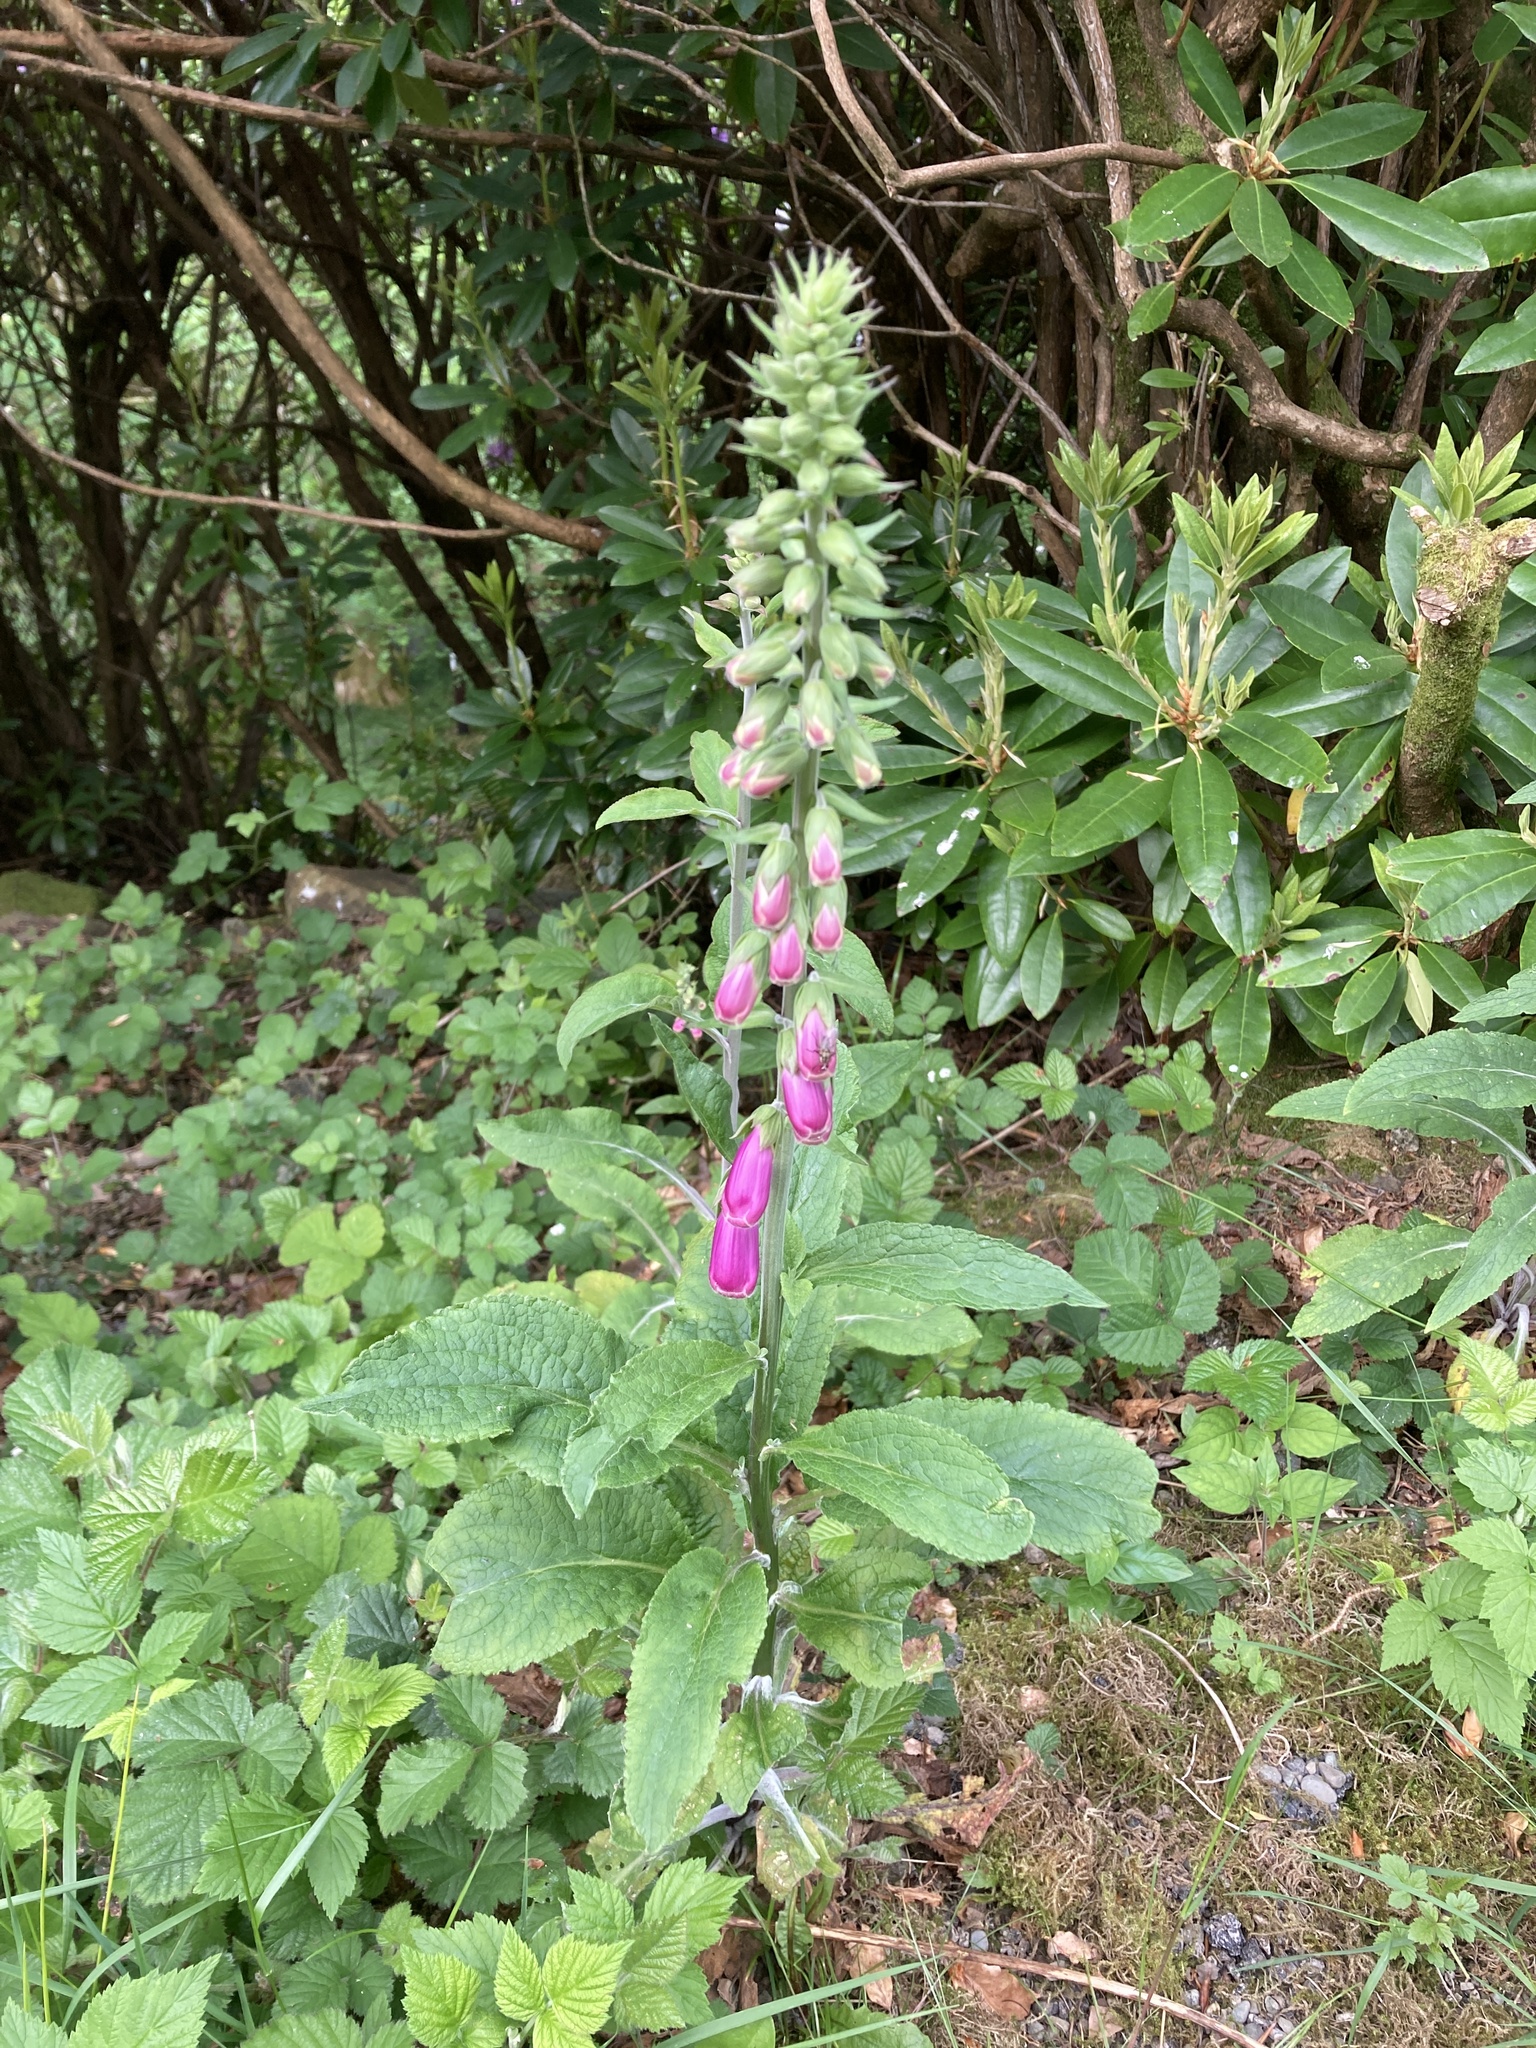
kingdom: Plantae
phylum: Tracheophyta
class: Magnoliopsida
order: Lamiales
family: Plantaginaceae
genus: Digitalis
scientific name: Digitalis purpurea
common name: Foxglove
